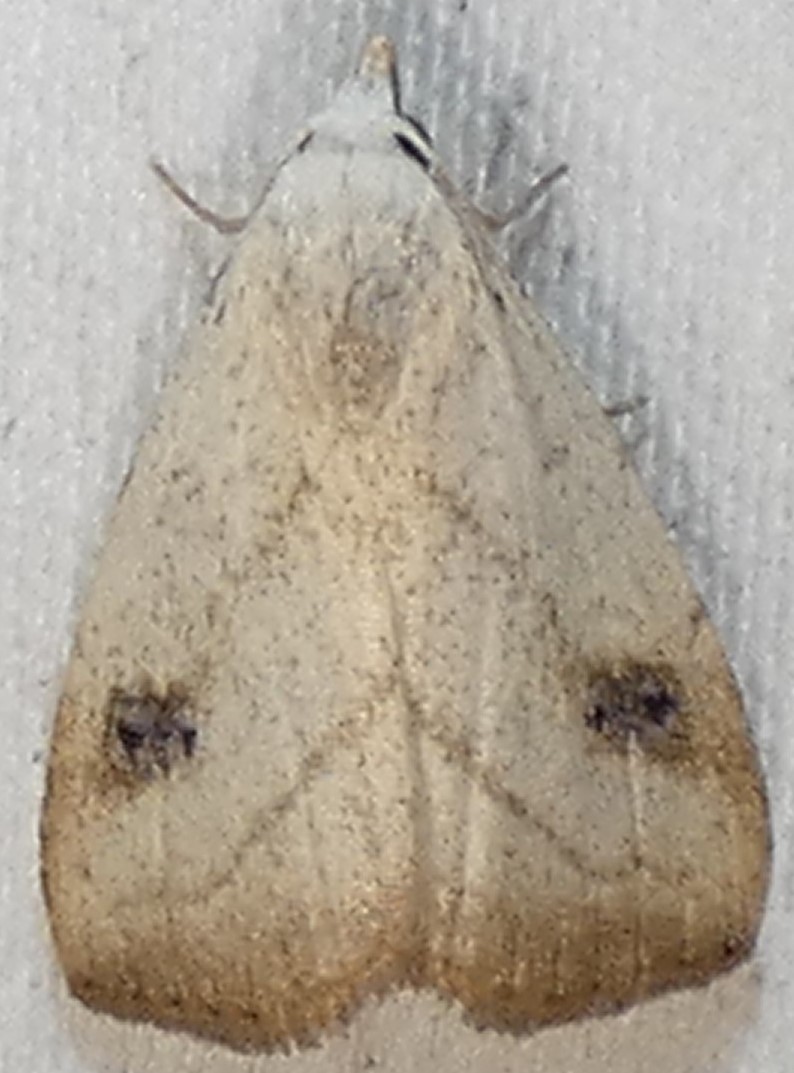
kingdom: Animalia
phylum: Arthropoda
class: Insecta
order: Lepidoptera
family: Erebidae
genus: Rivula
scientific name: Rivula propinqualis
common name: Spotted grass moth
